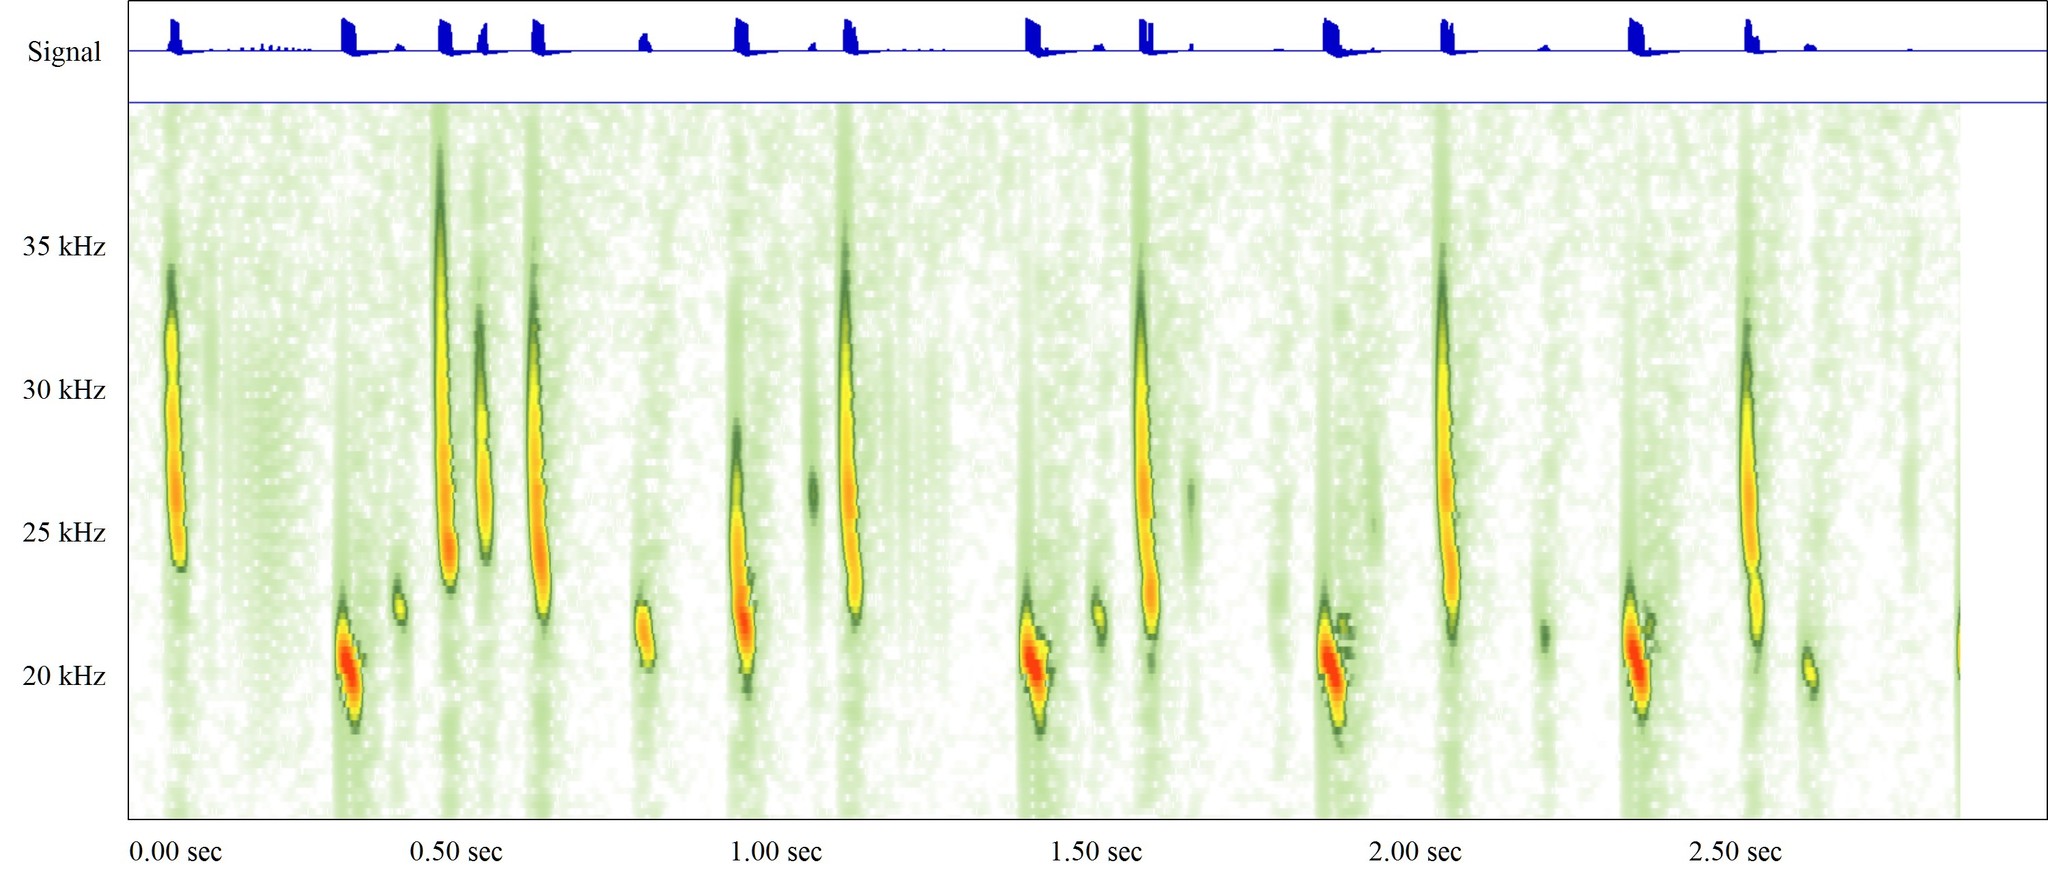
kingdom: Animalia
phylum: Chordata
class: Mammalia
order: Chiroptera
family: Vespertilionidae
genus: Nyctalus
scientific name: Nyctalus noctula
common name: Noctule
